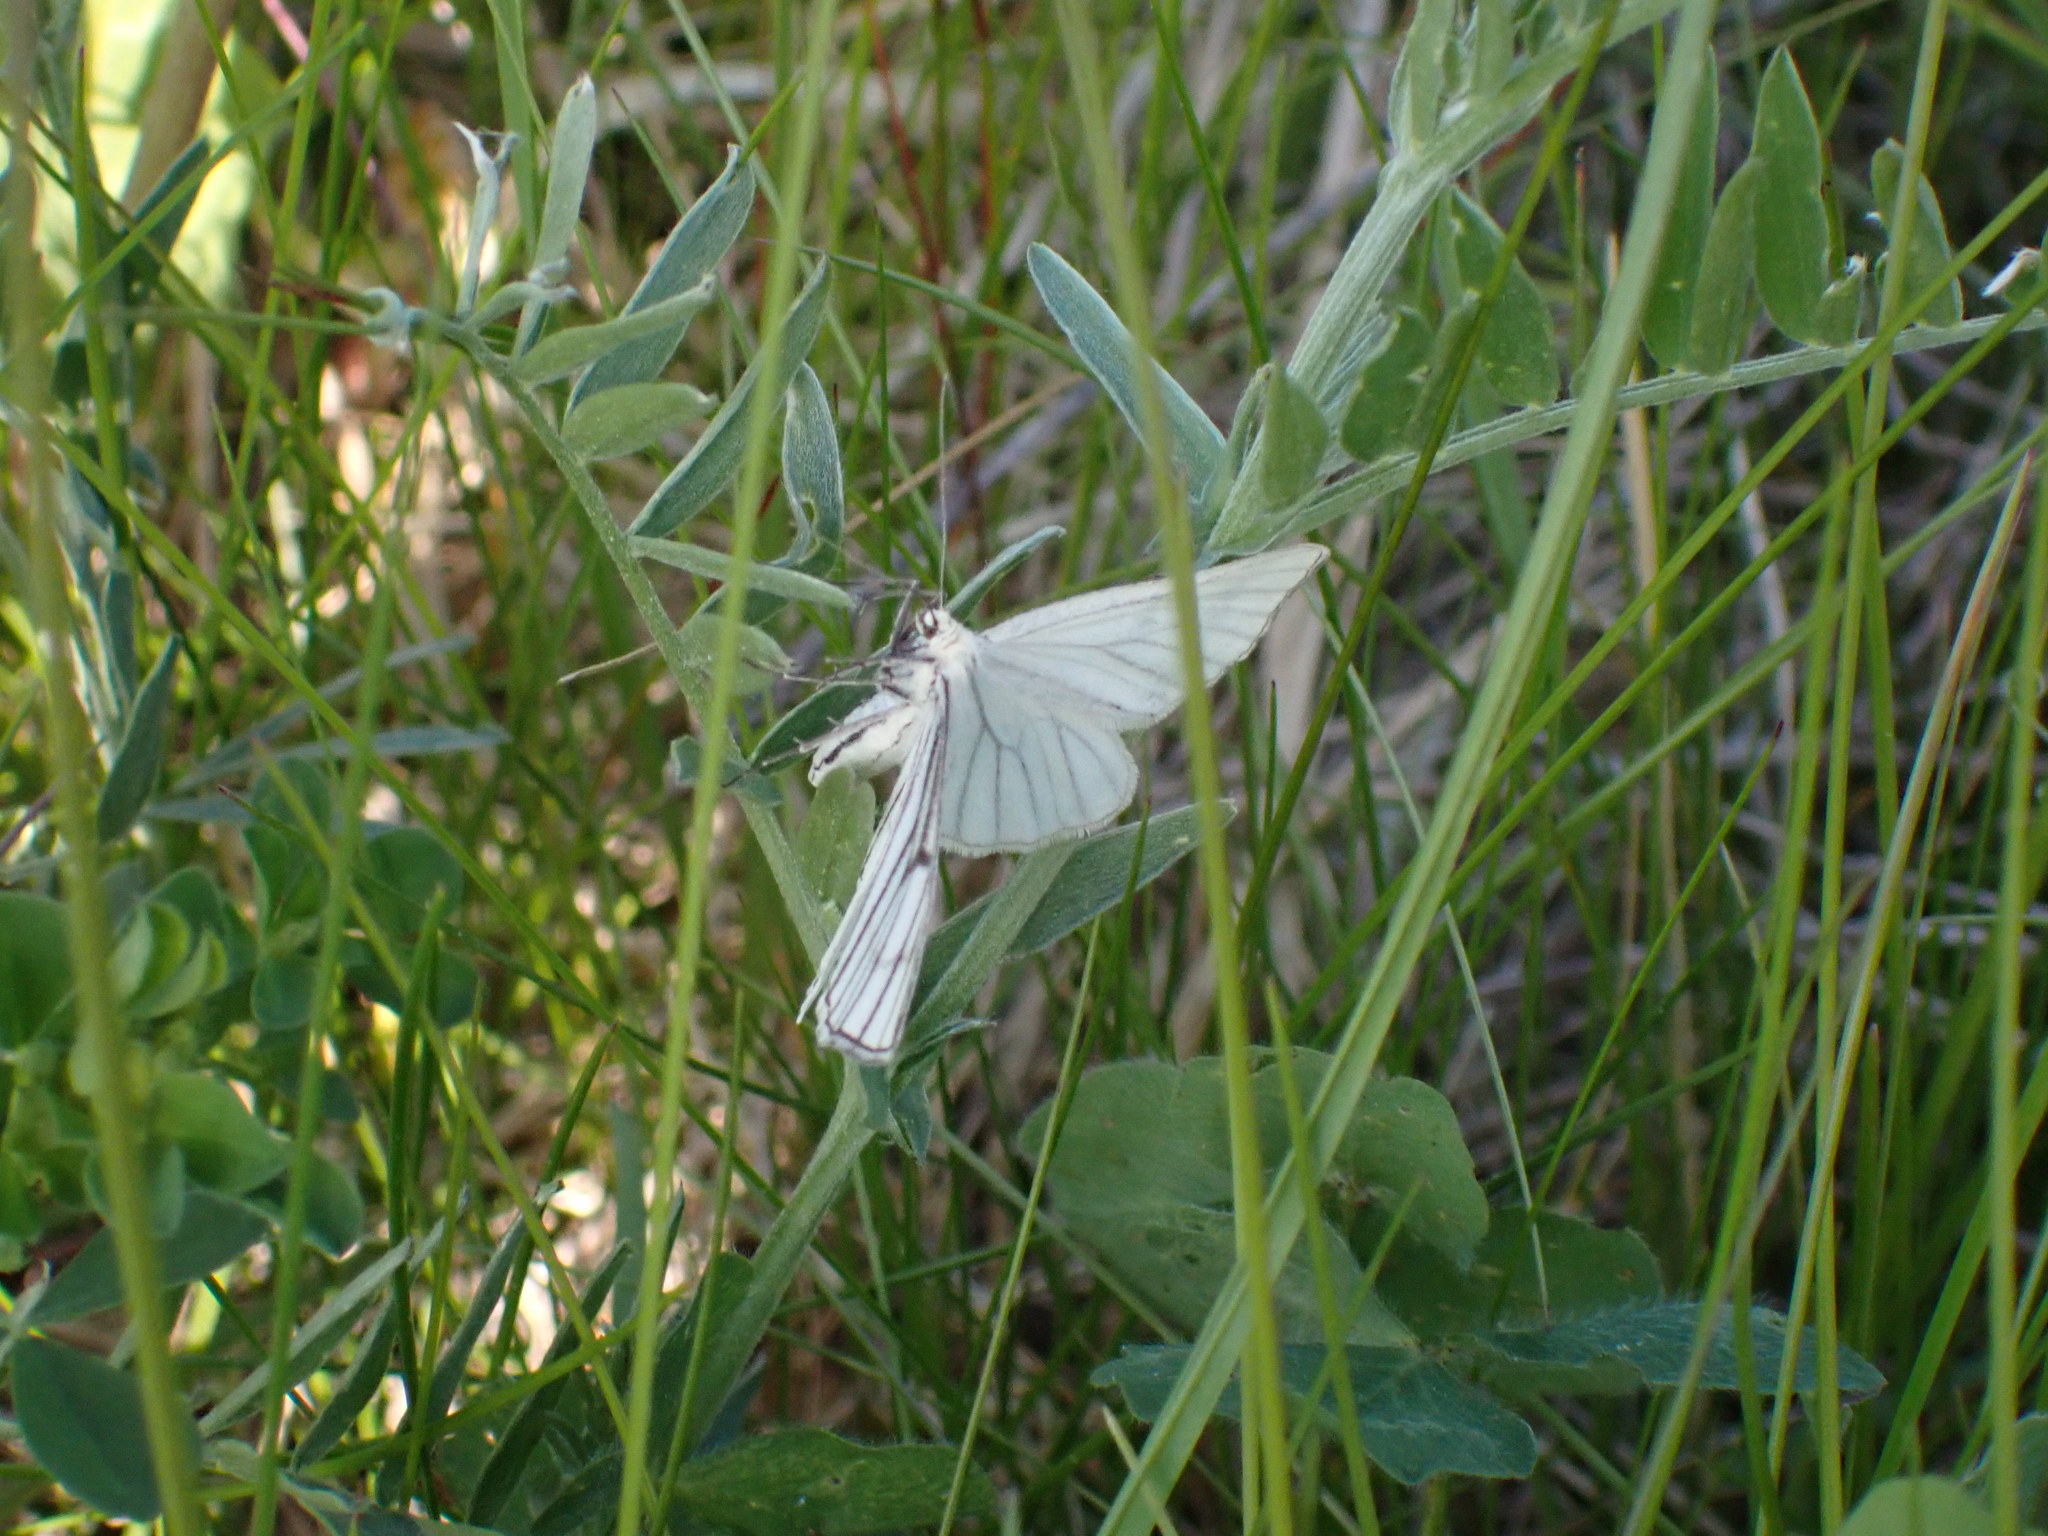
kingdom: Animalia
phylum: Arthropoda
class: Insecta
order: Lepidoptera
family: Geometridae
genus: Siona
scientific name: Siona lineata
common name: Black-veined moth
